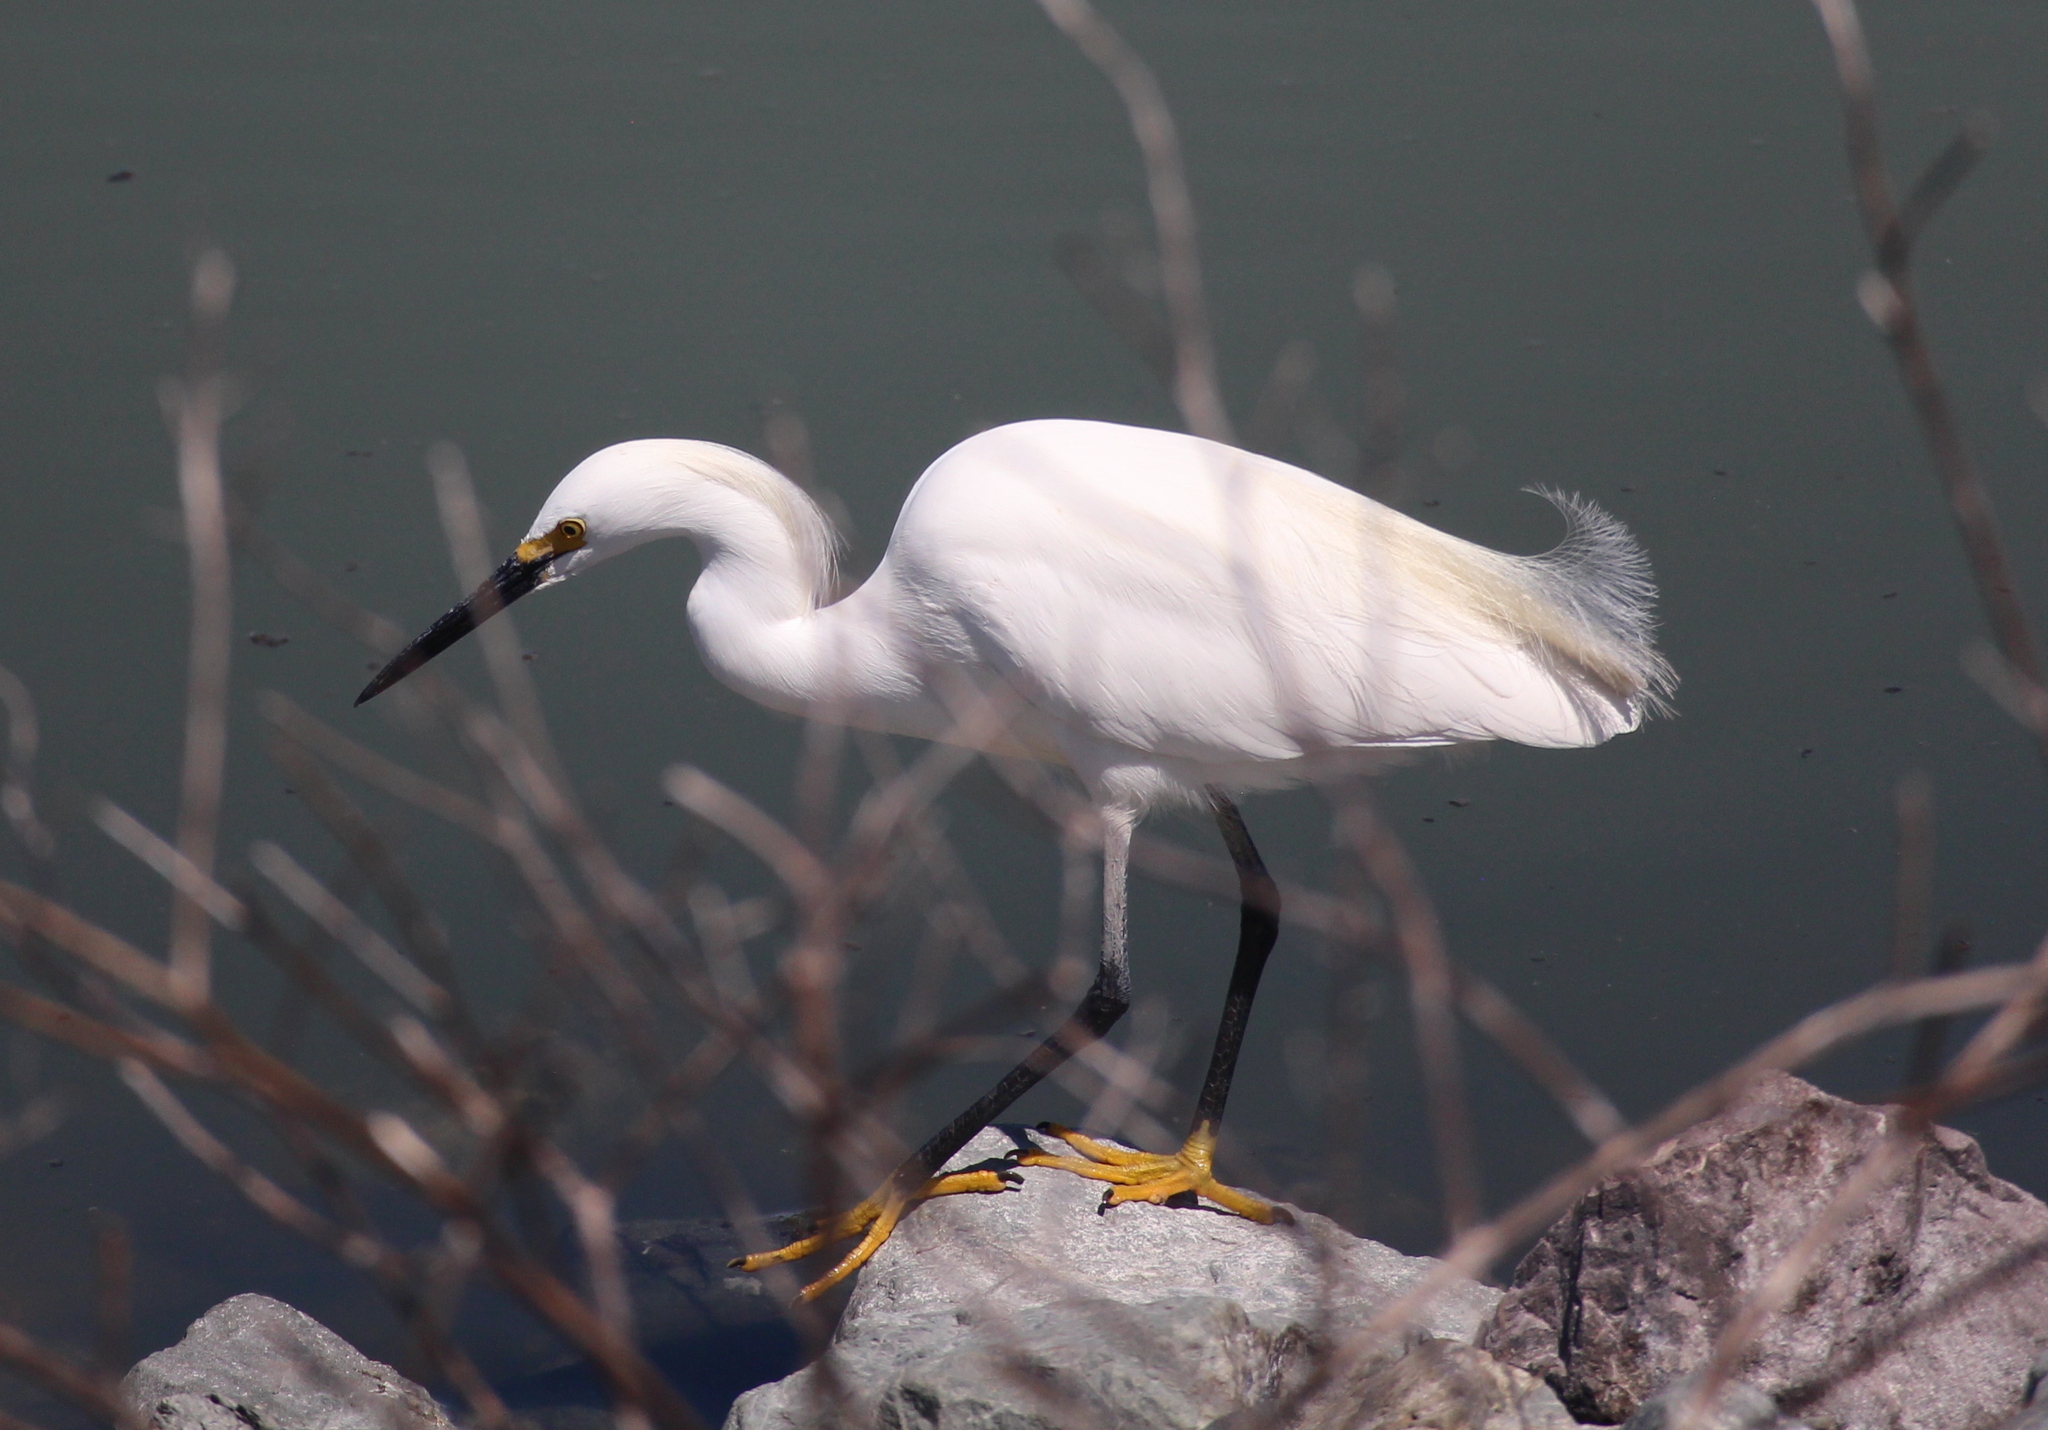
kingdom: Animalia
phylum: Chordata
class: Aves
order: Pelecaniformes
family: Ardeidae
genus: Egretta
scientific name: Egretta thula
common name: Snowy egret
